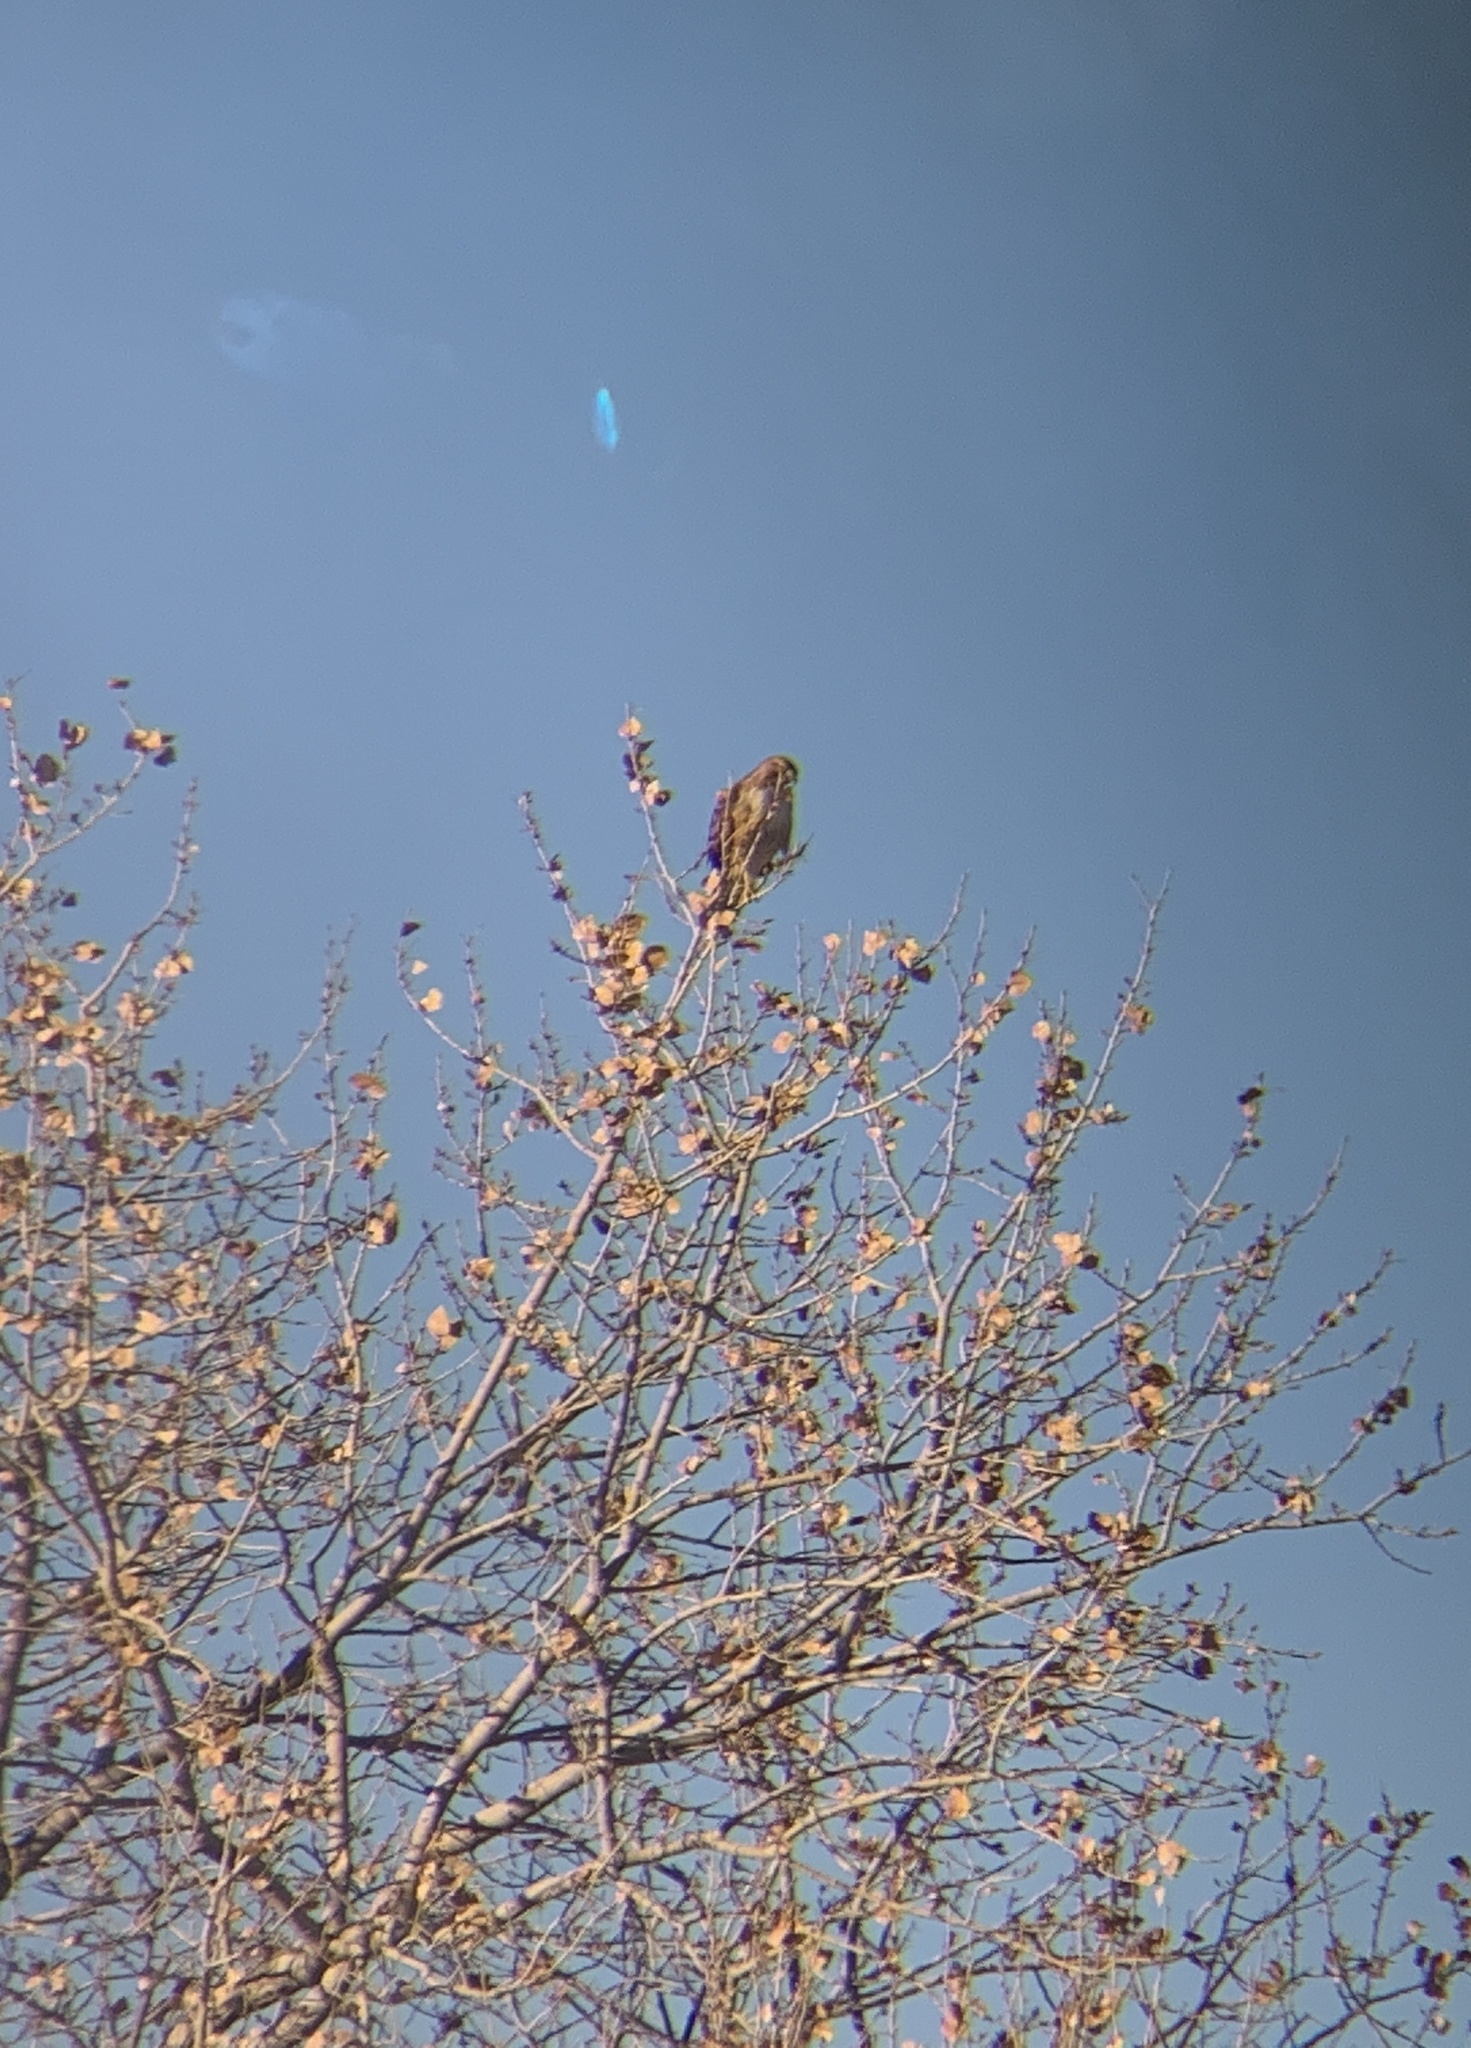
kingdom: Animalia
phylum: Chordata
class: Aves
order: Accipitriformes
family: Accipitridae
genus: Buteo
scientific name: Buteo jamaicensis
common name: Red-tailed hawk
